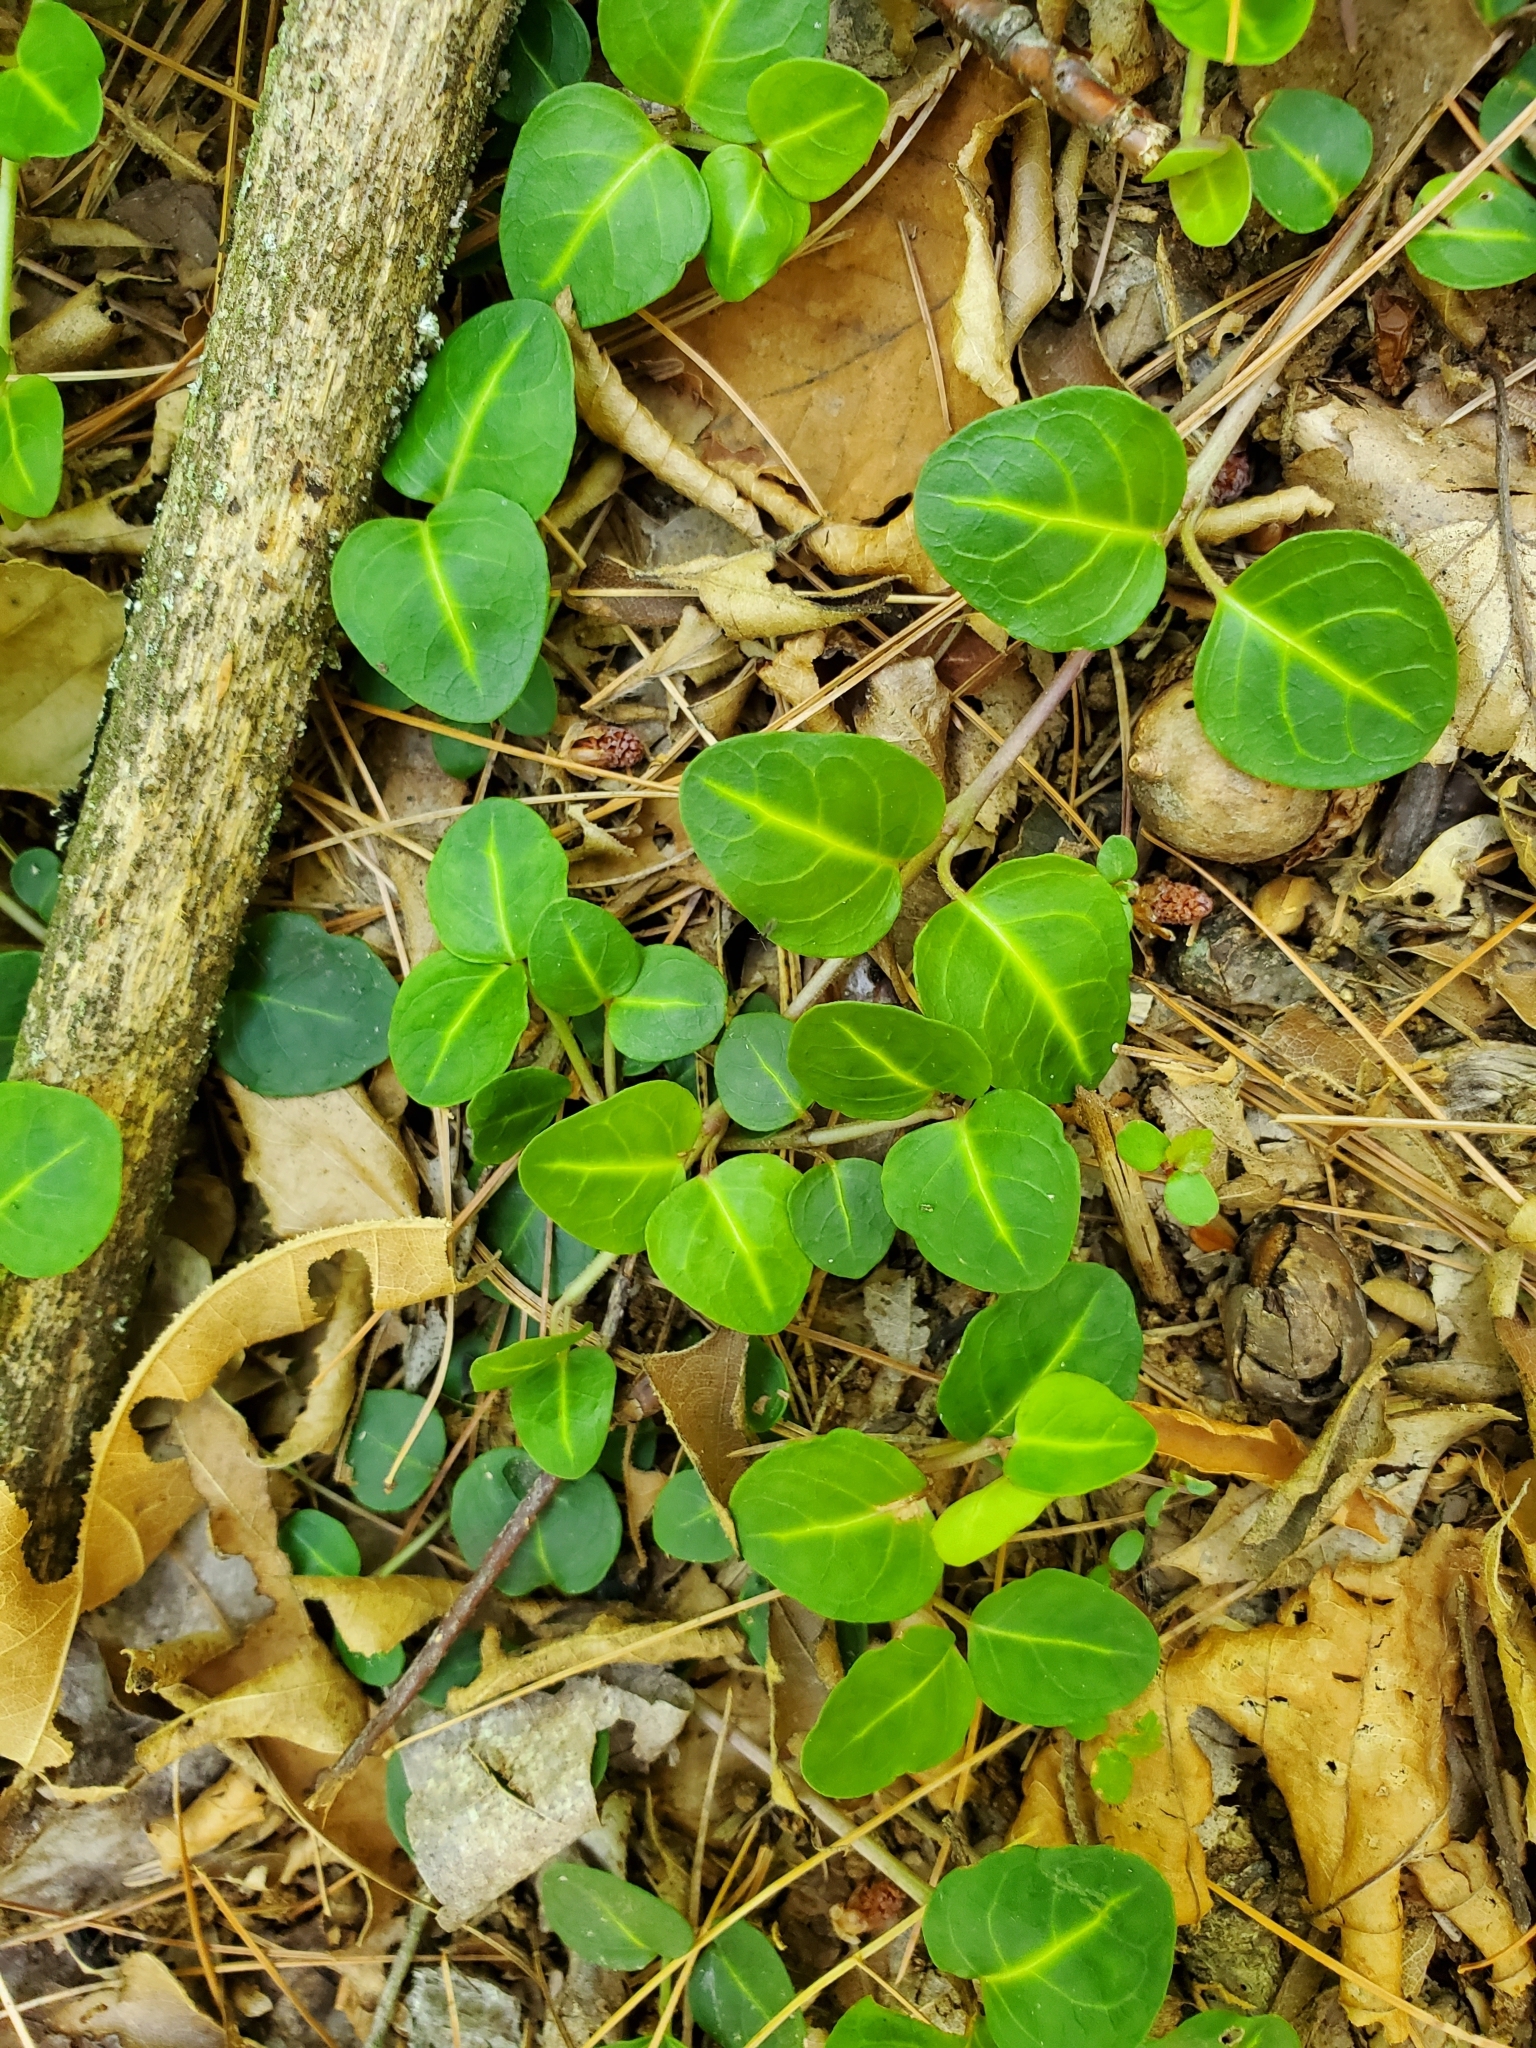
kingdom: Plantae
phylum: Tracheophyta
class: Magnoliopsida
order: Gentianales
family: Rubiaceae
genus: Mitchella
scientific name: Mitchella repens
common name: Partridge-berry
